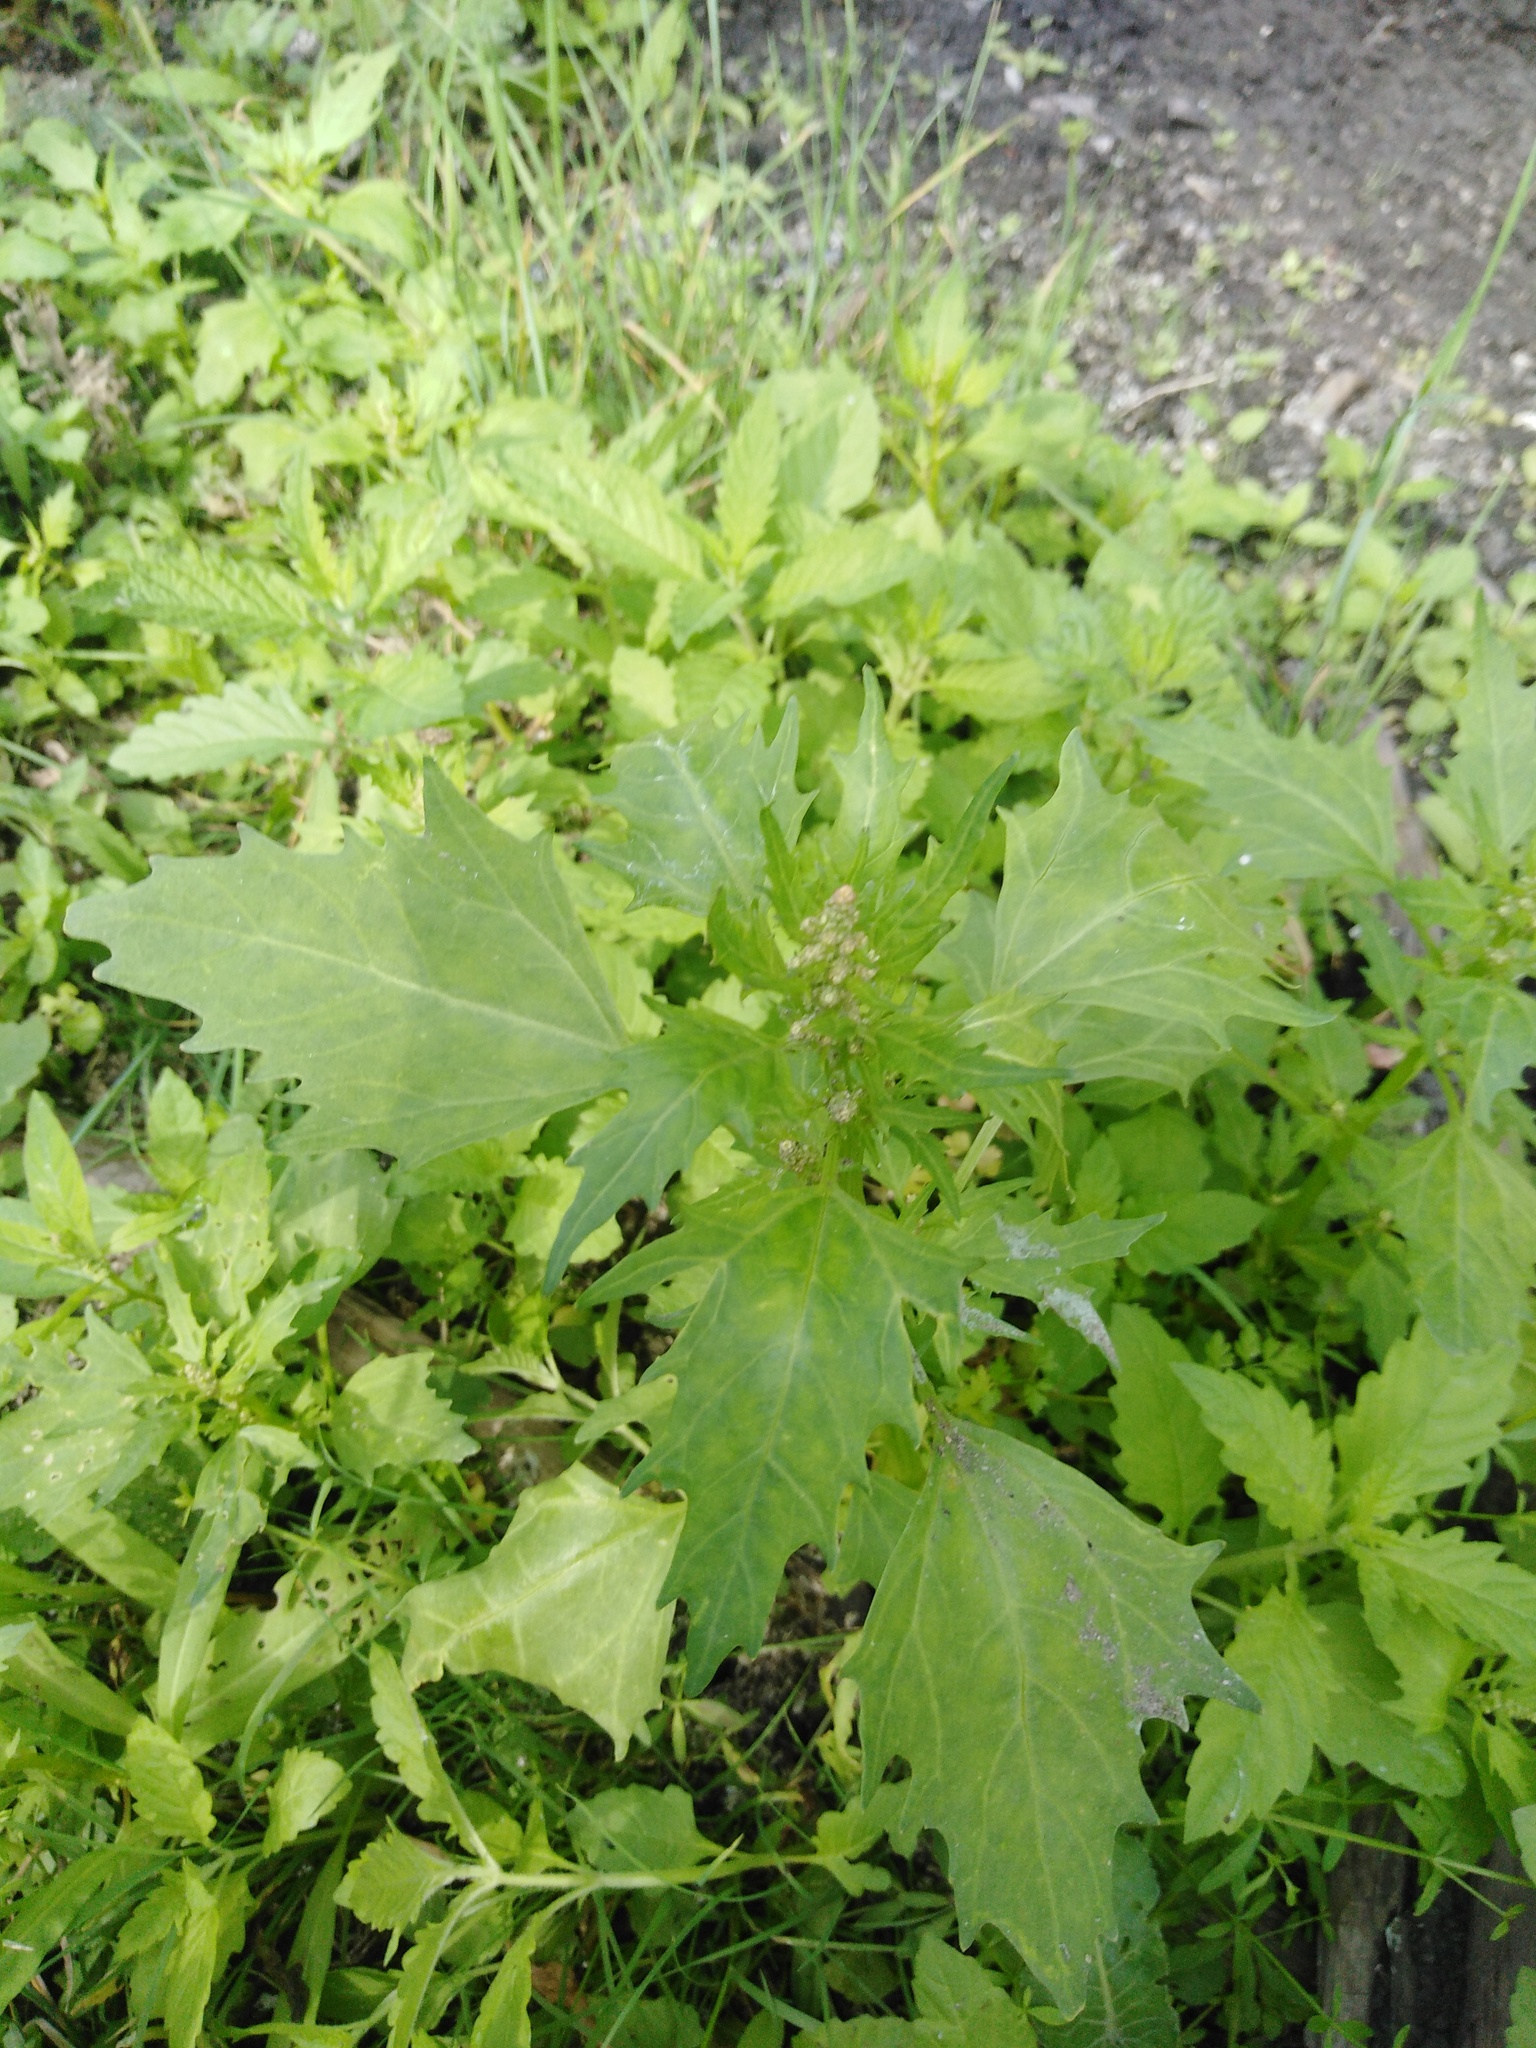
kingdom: Plantae
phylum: Tracheophyta
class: Magnoliopsida
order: Caryophyllales
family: Amaranthaceae
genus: Oxybasis
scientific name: Oxybasis rubra
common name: Red goosefoot
